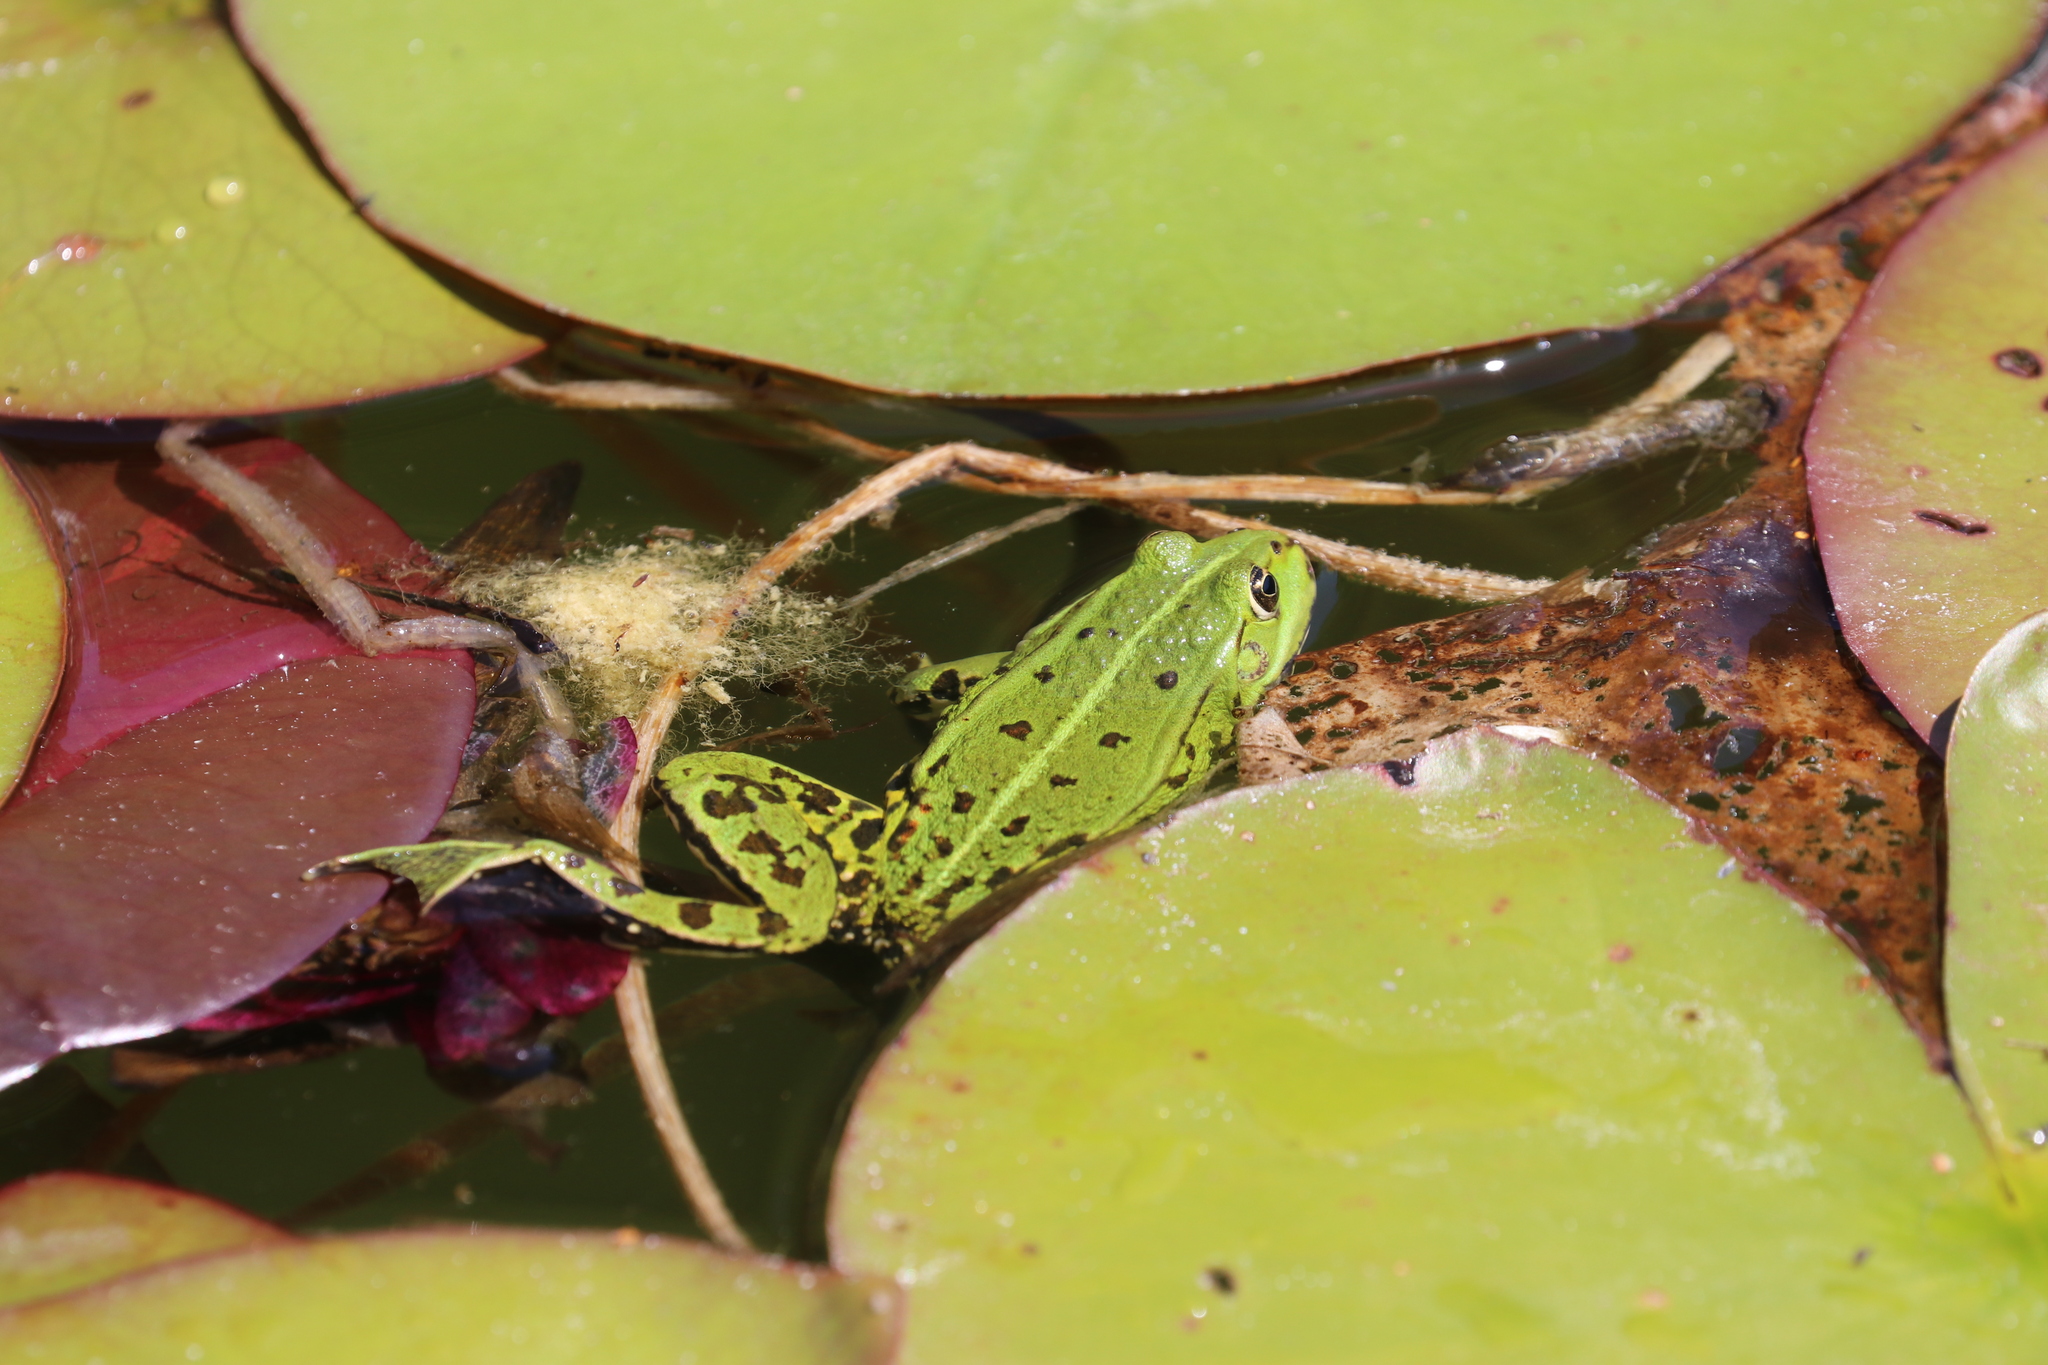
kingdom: Animalia
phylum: Chordata
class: Amphibia
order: Anura
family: Ranidae
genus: Pelophylax
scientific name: Pelophylax
